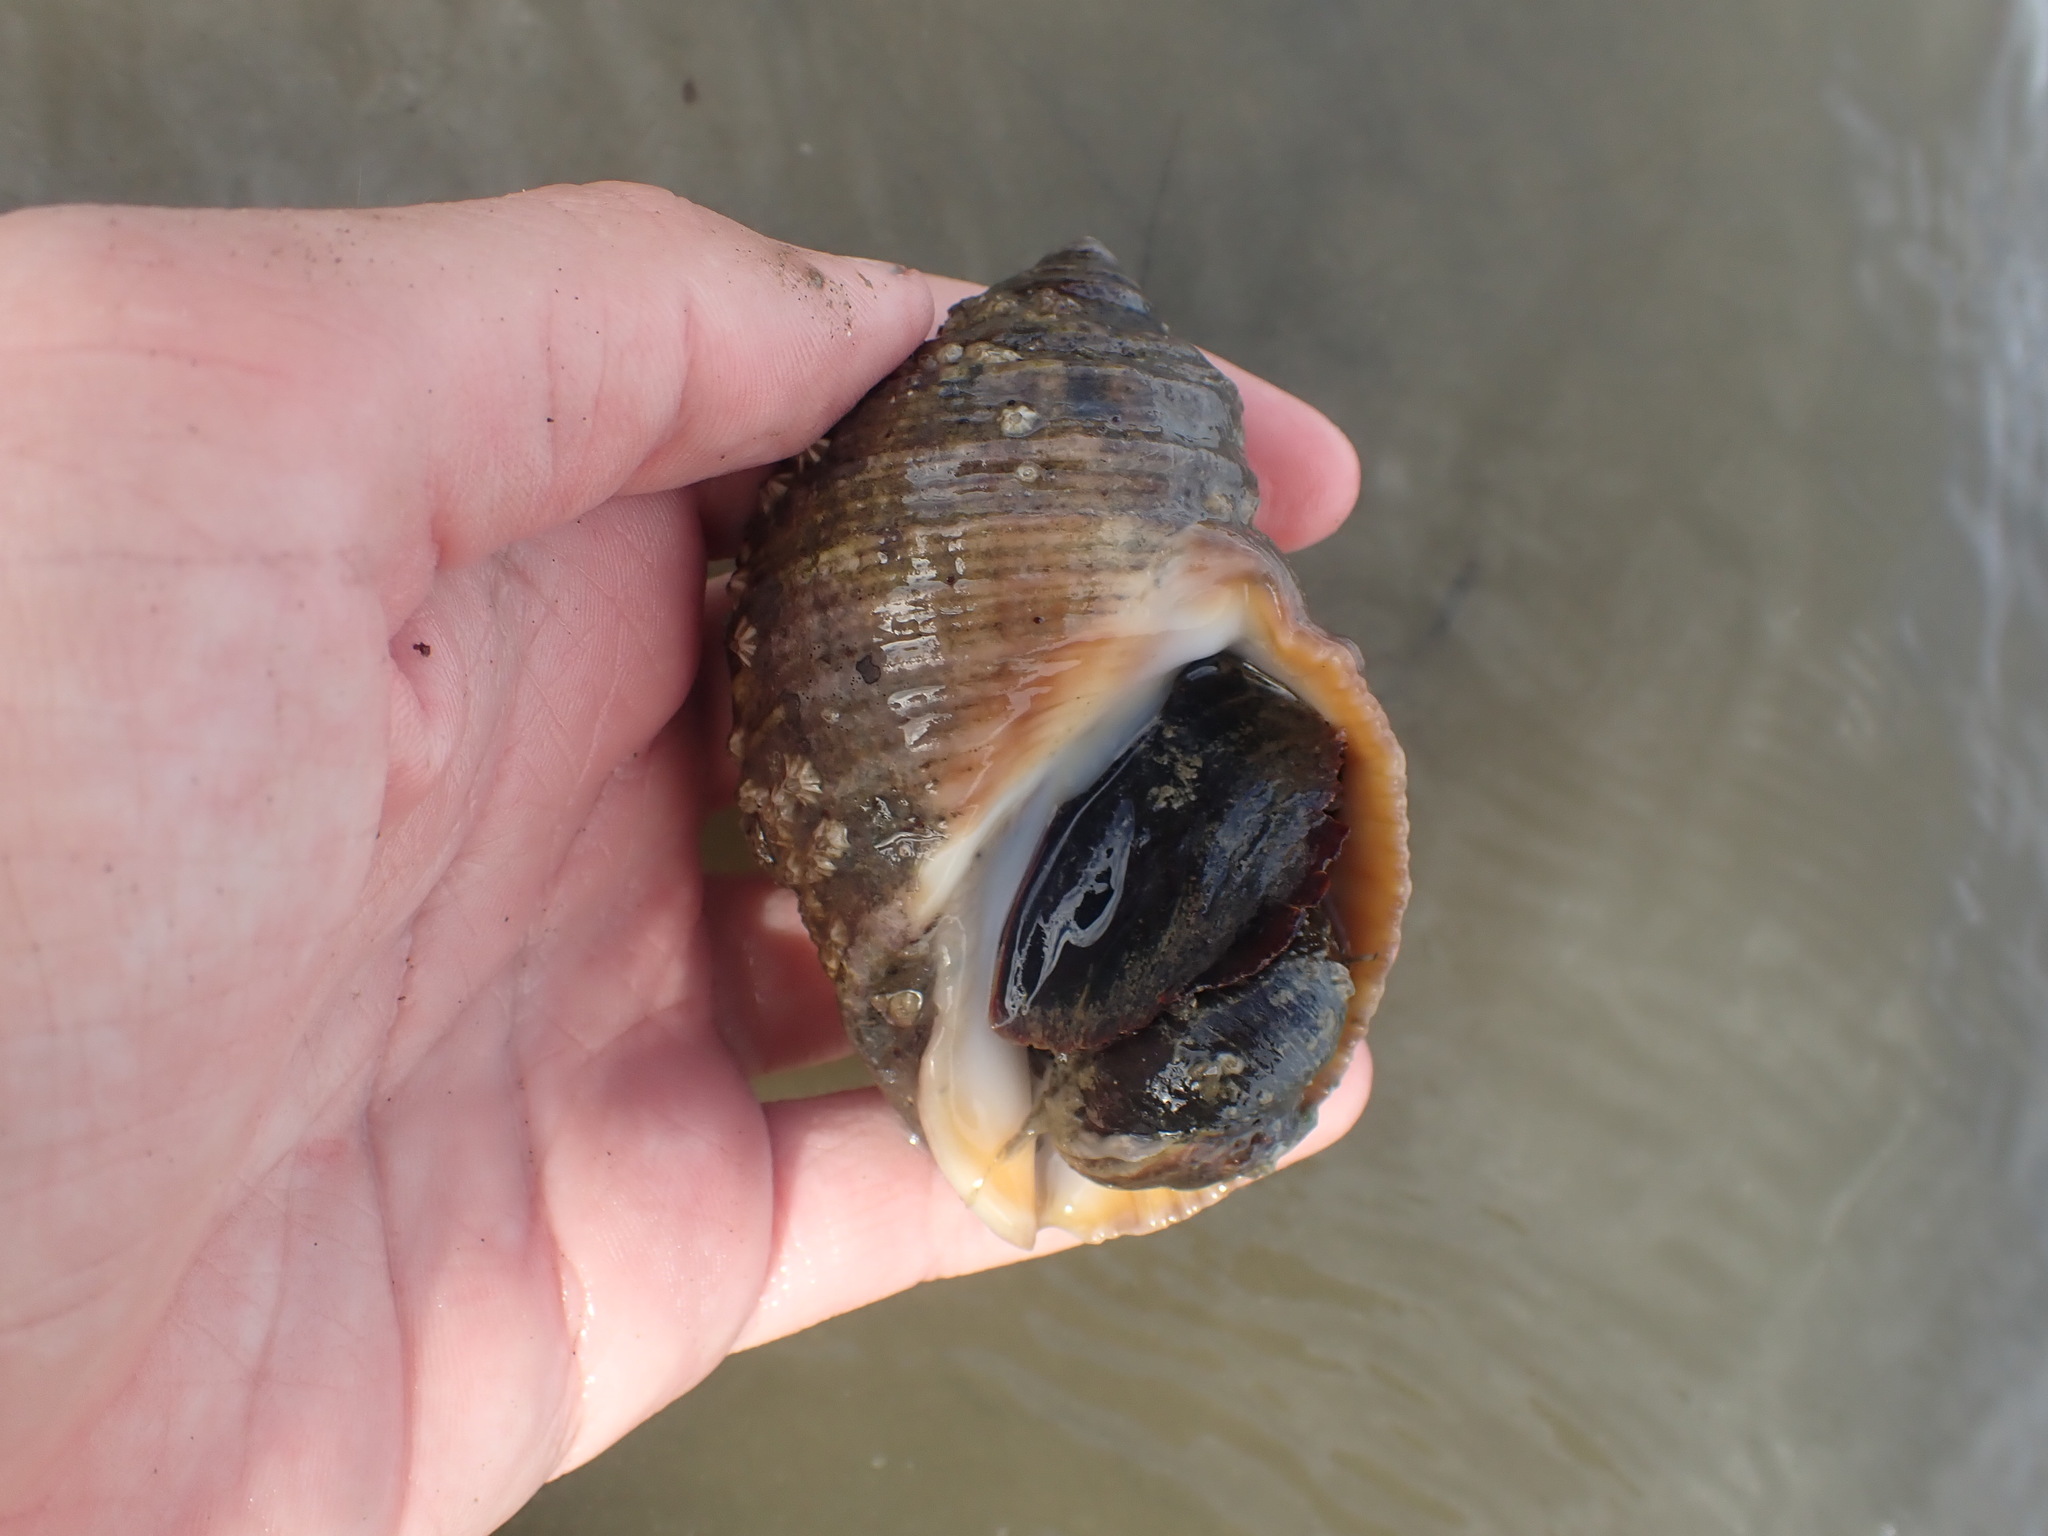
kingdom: Animalia
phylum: Mollusca
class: Gastropoda
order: Neogastropoda
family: Muricidae
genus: Dicathais
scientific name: Dicathais orbita
